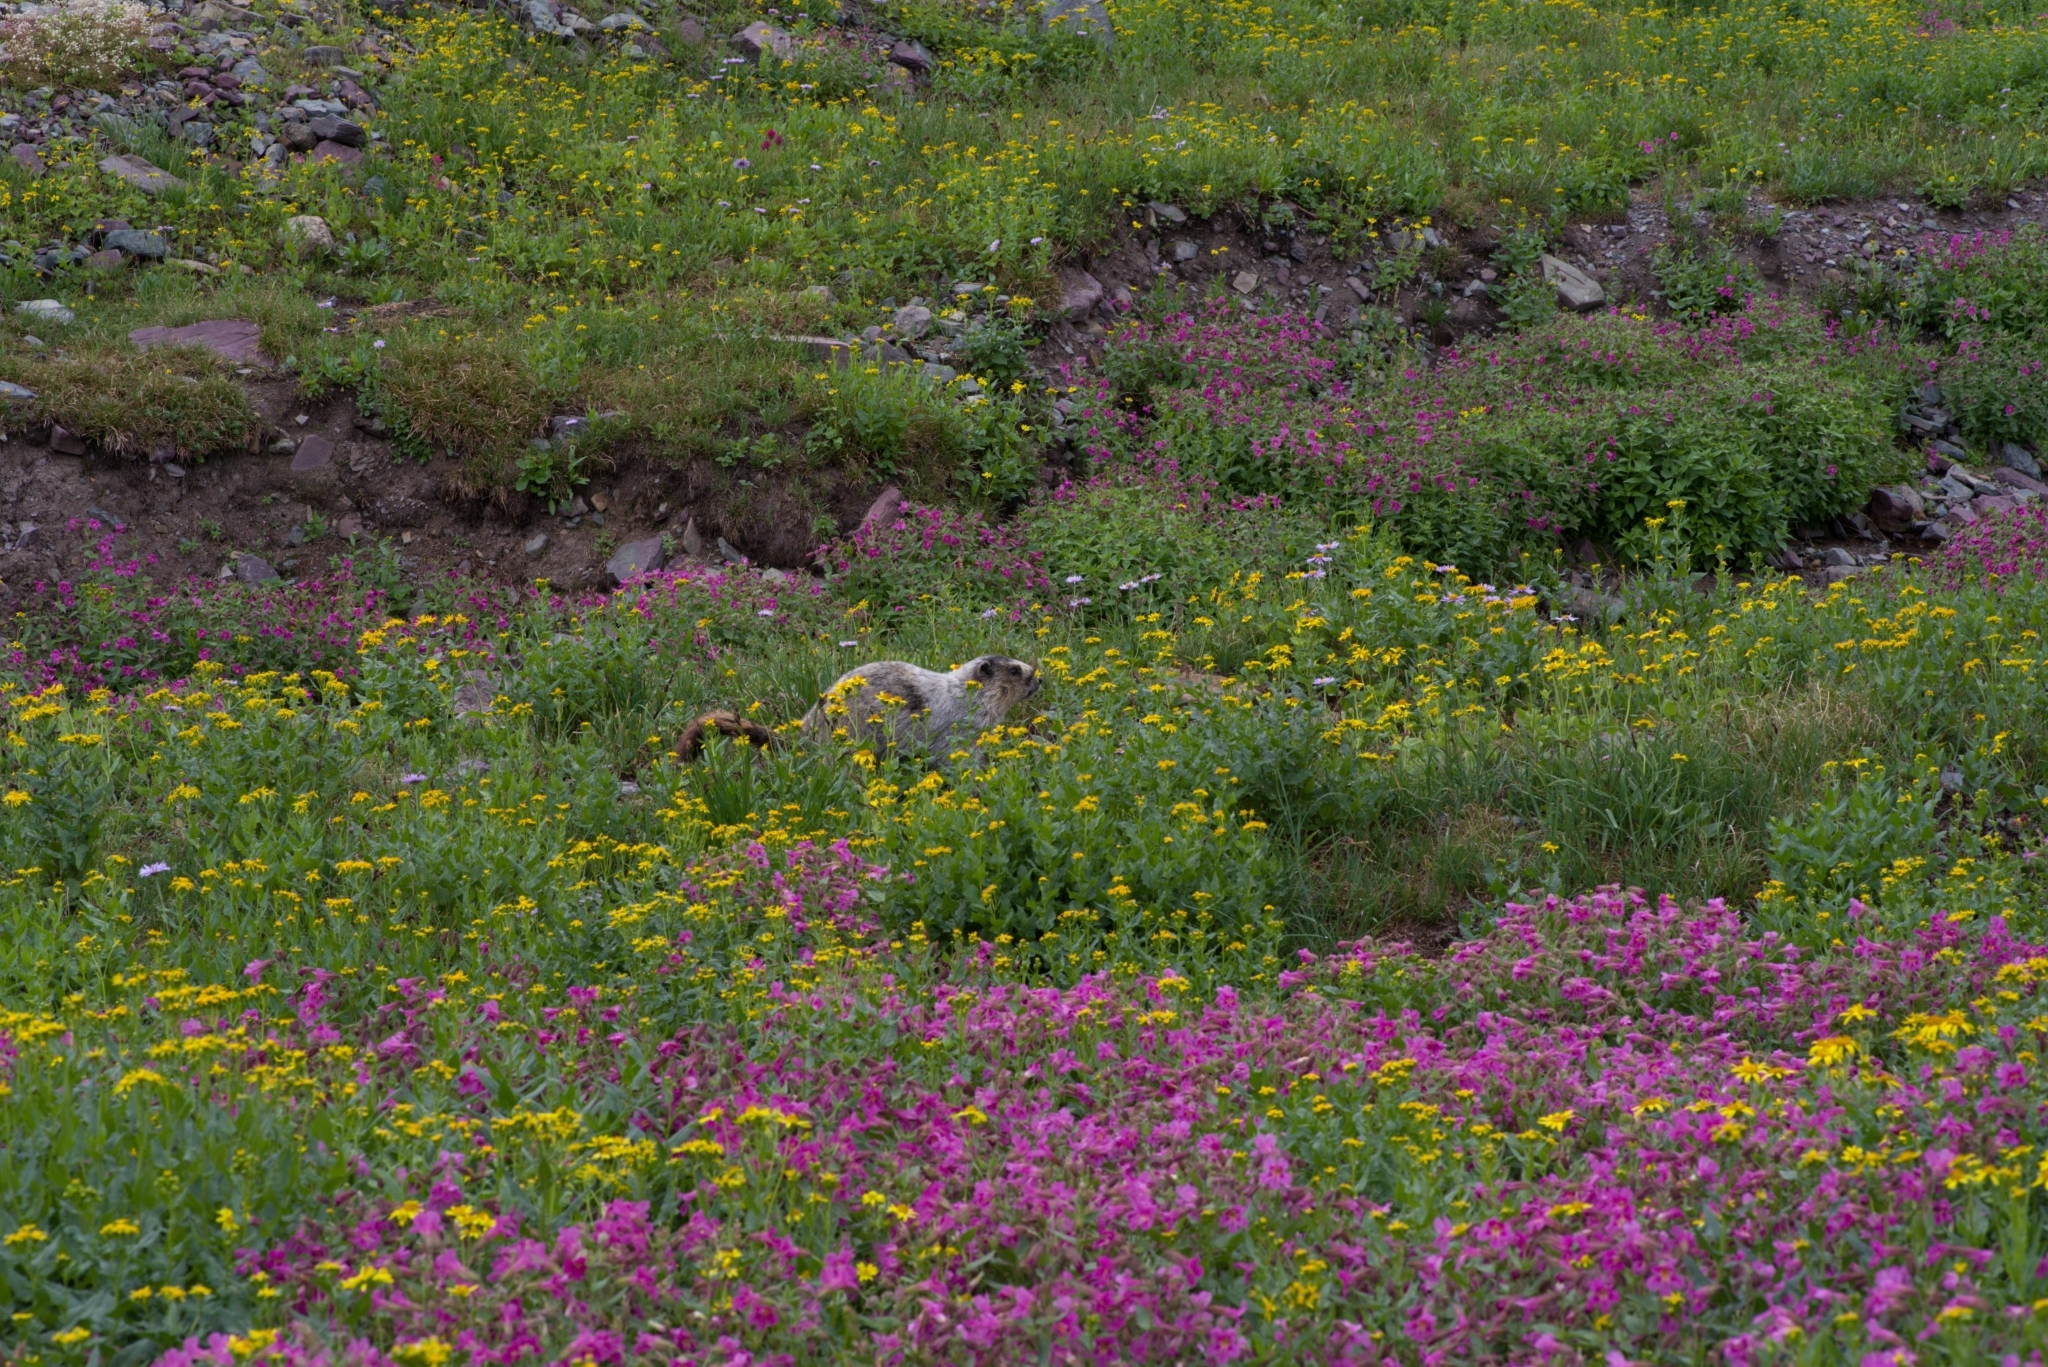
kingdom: Animalia
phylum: Chordata
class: Mammalia
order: Rodentia
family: Sciuridae
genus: Marmota
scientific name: Marmota caligata
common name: Hoary marmot
